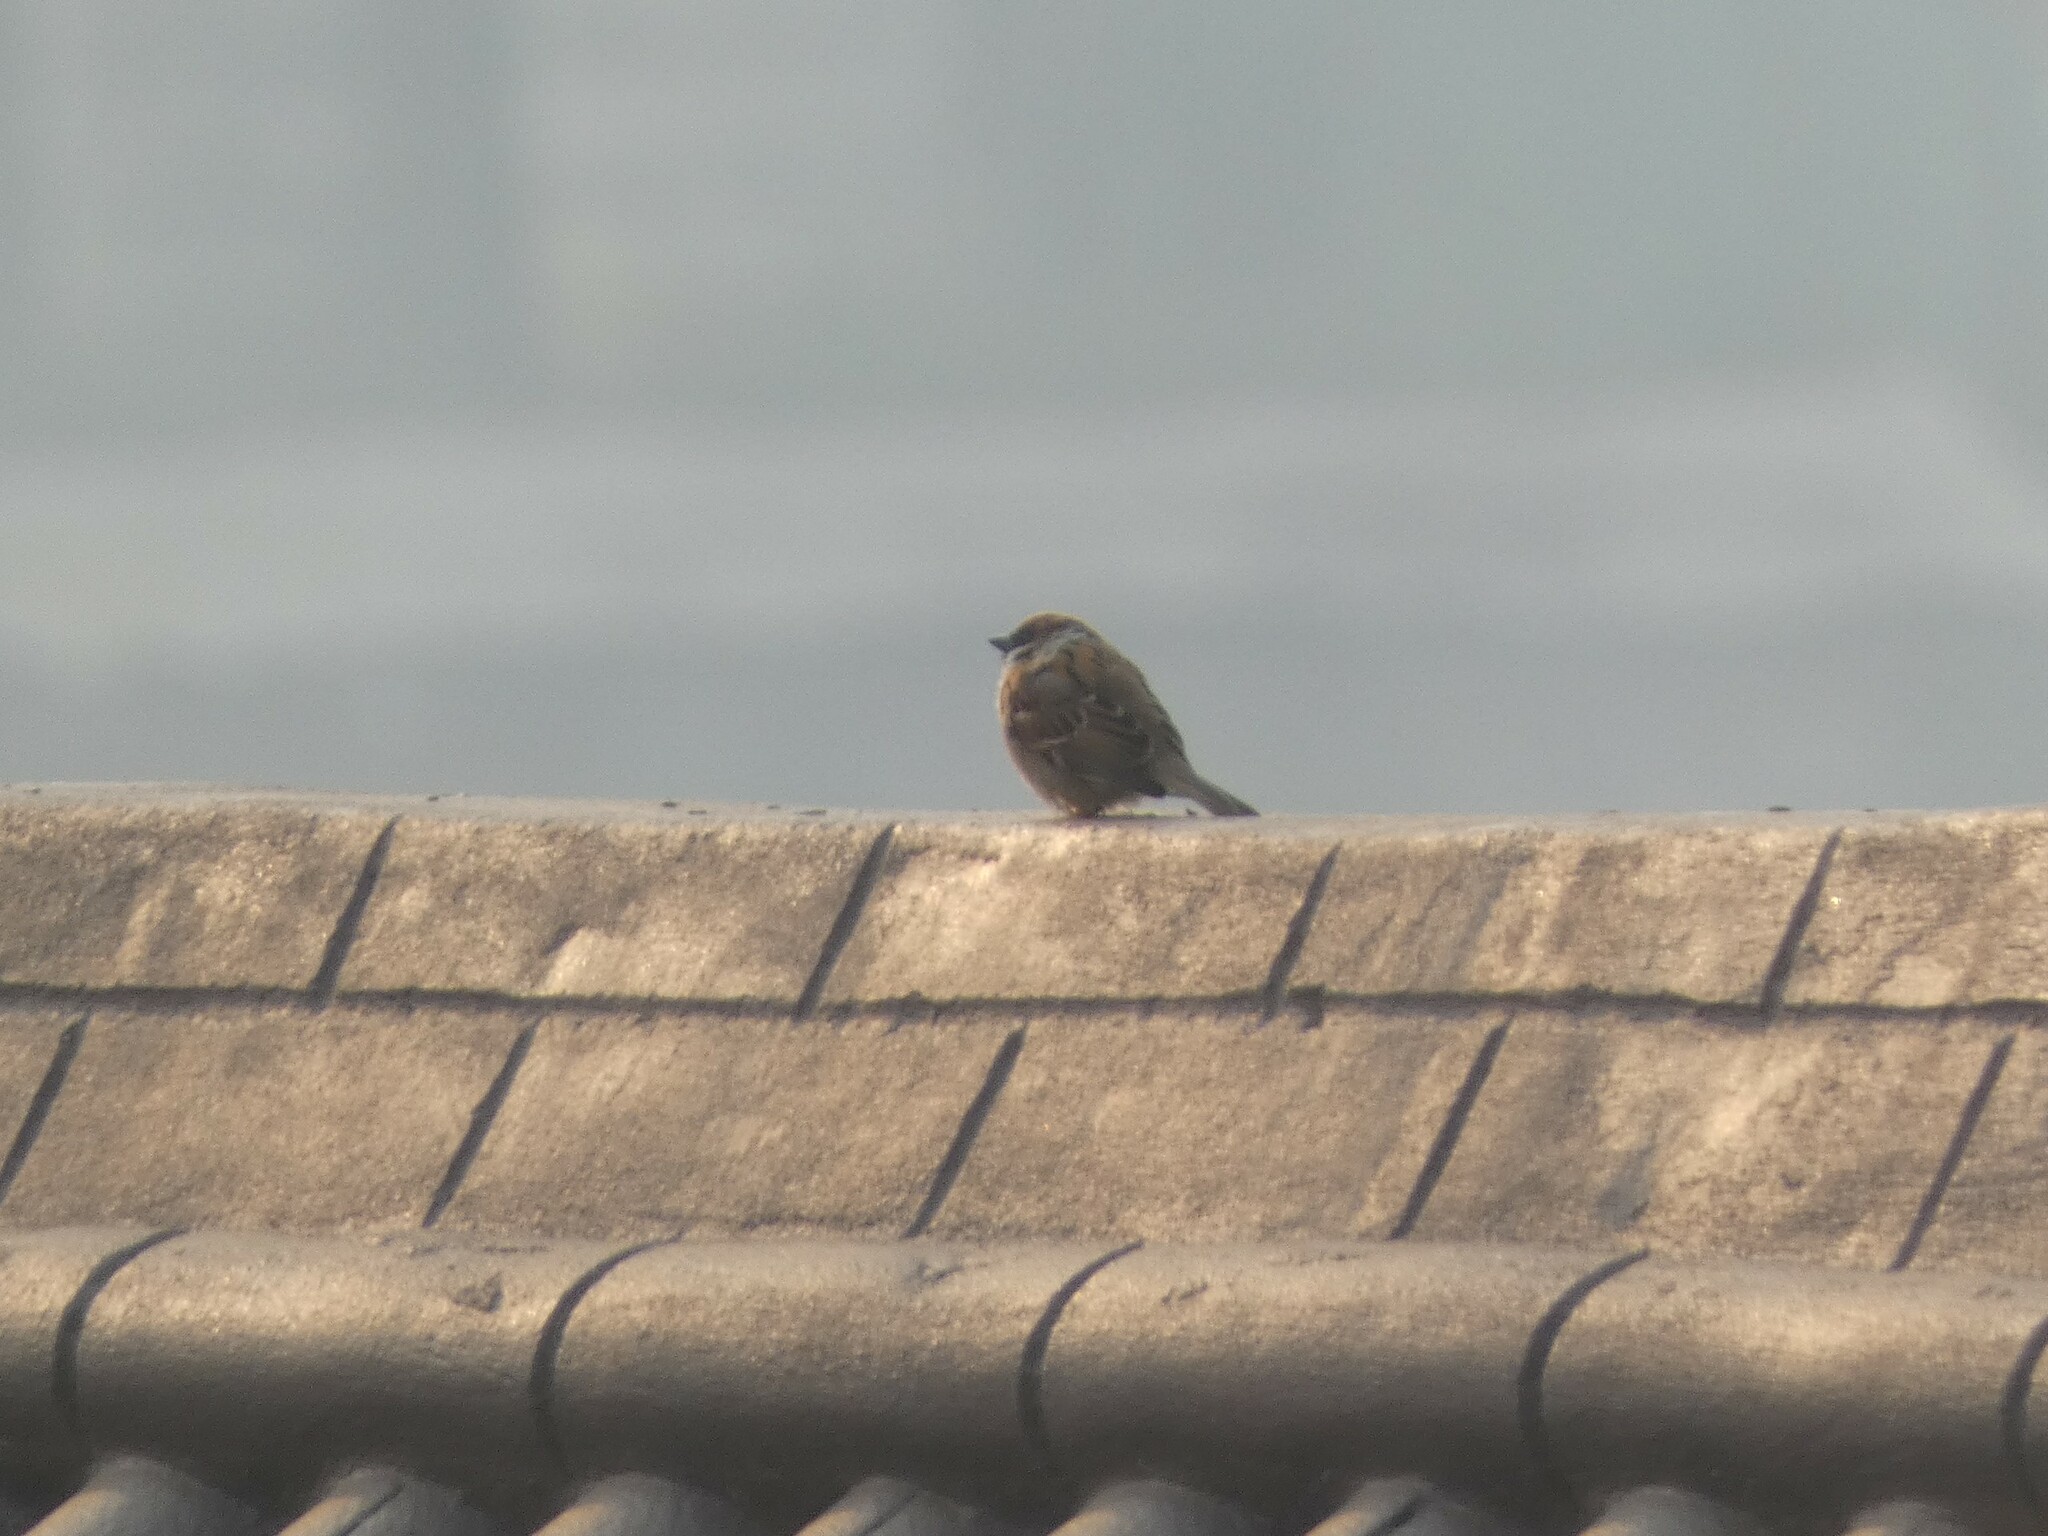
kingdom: Animalia
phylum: Chordata
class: Aves
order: Passeriformes
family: Passeridae
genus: Passer
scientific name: Passer montanus
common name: Eurasian tree sparrow
